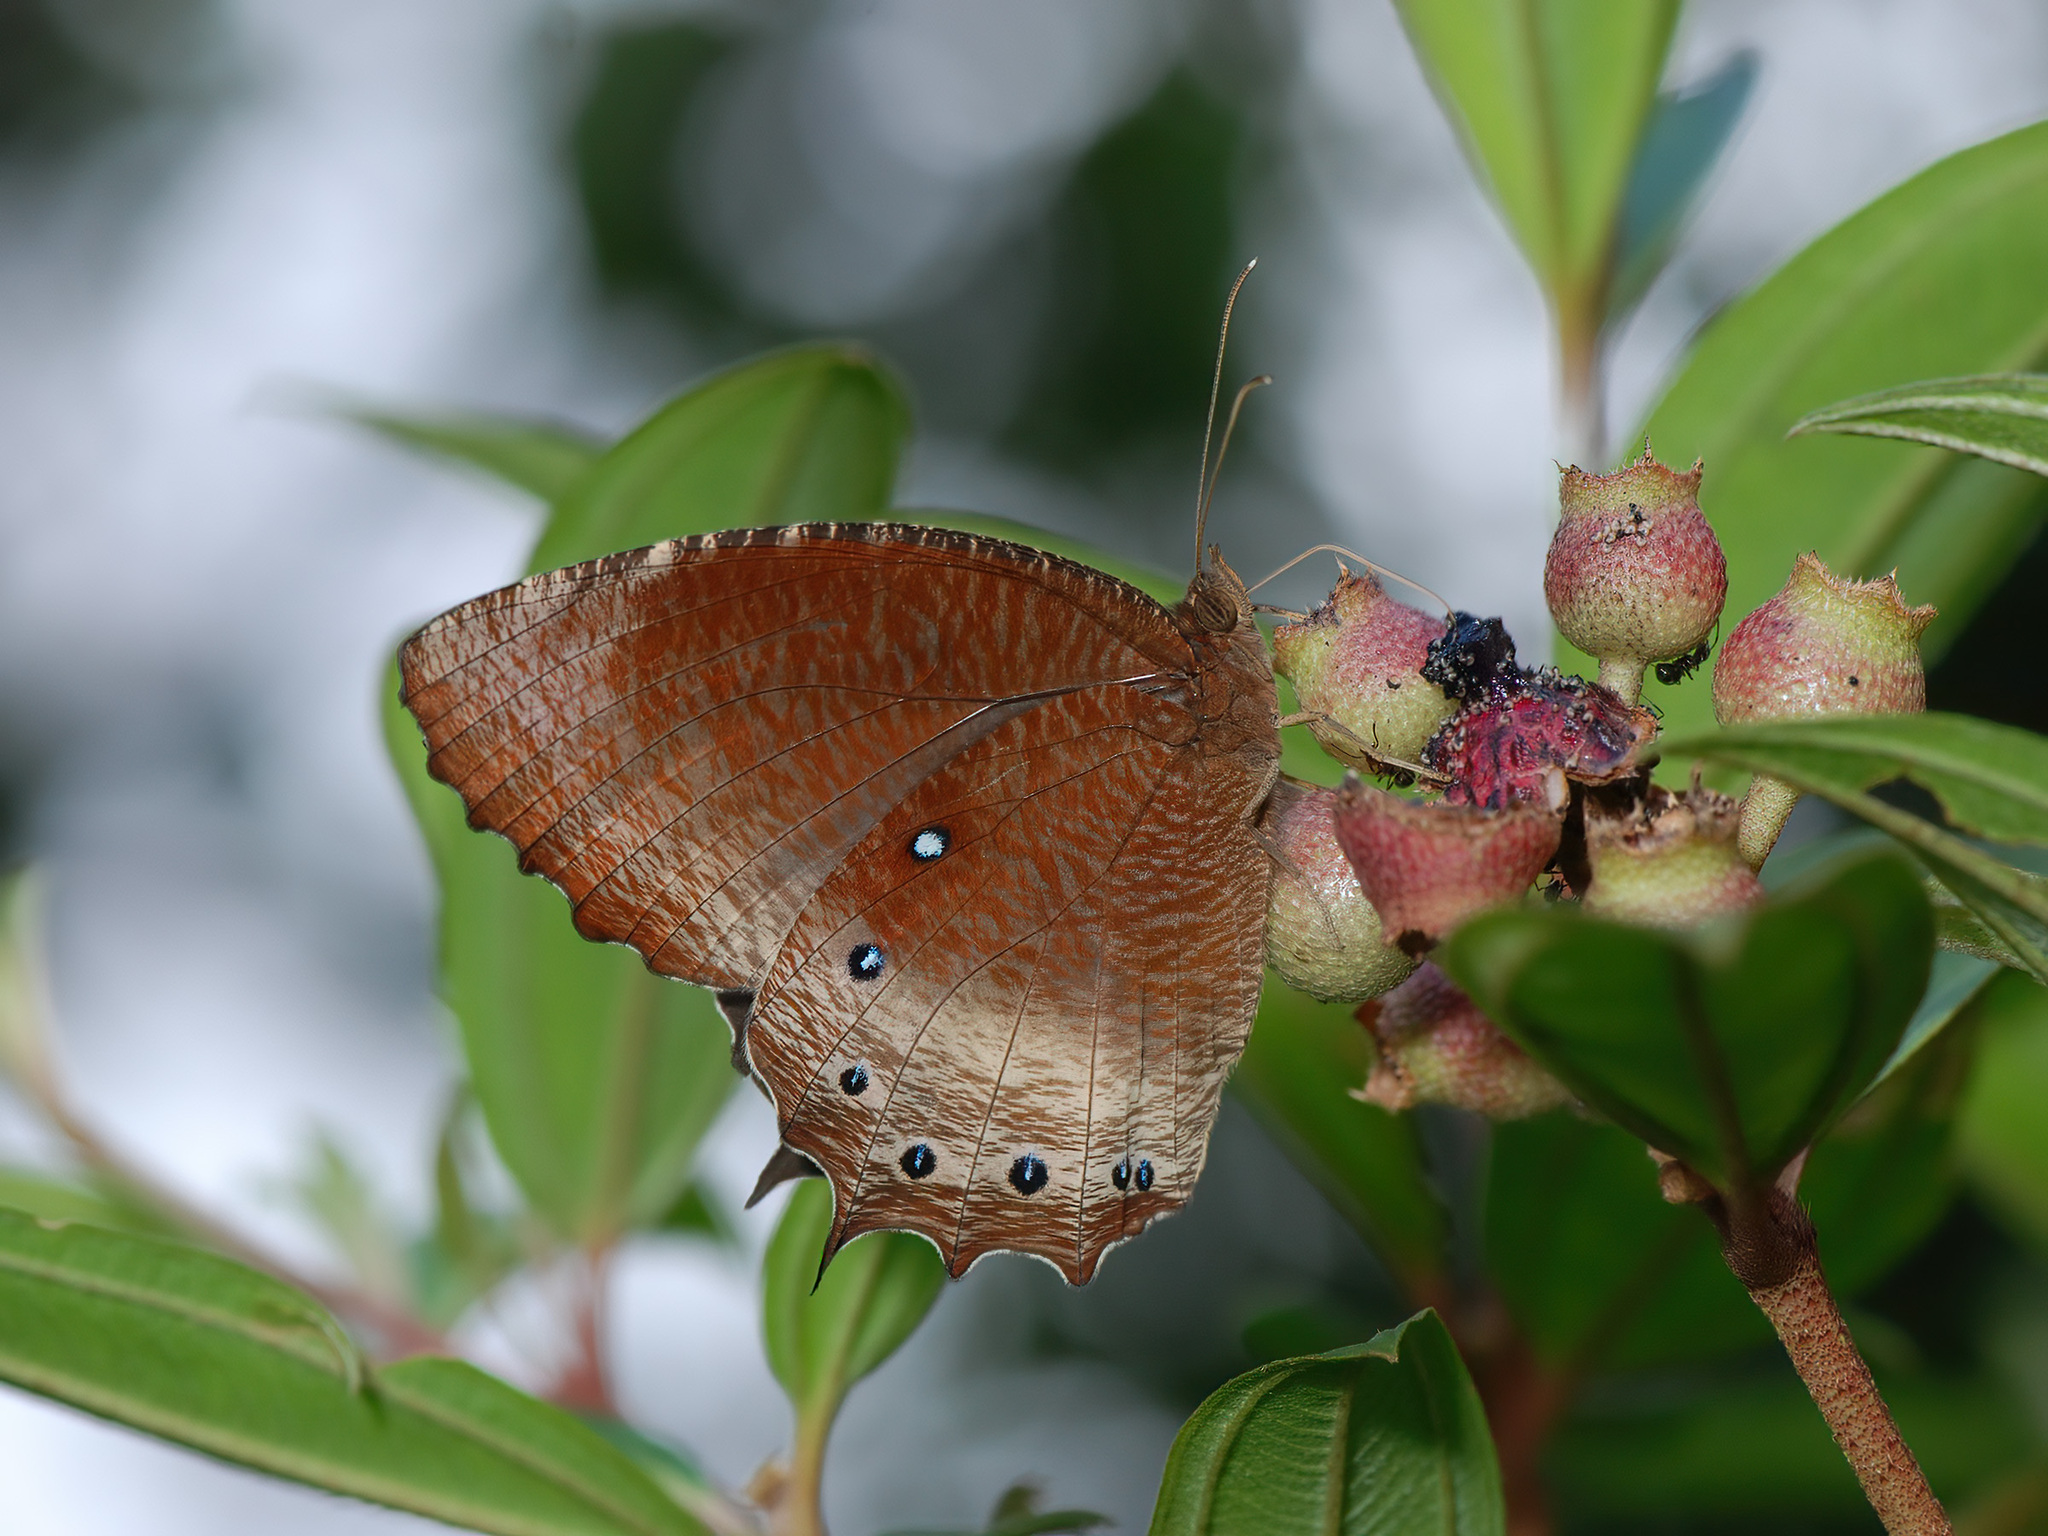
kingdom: Animalia
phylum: Arthropoda
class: Insecta
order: Lepidoptera
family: Nymphalidae
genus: Elymnias
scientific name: Elymnias panthera
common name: Tawny palmfly
